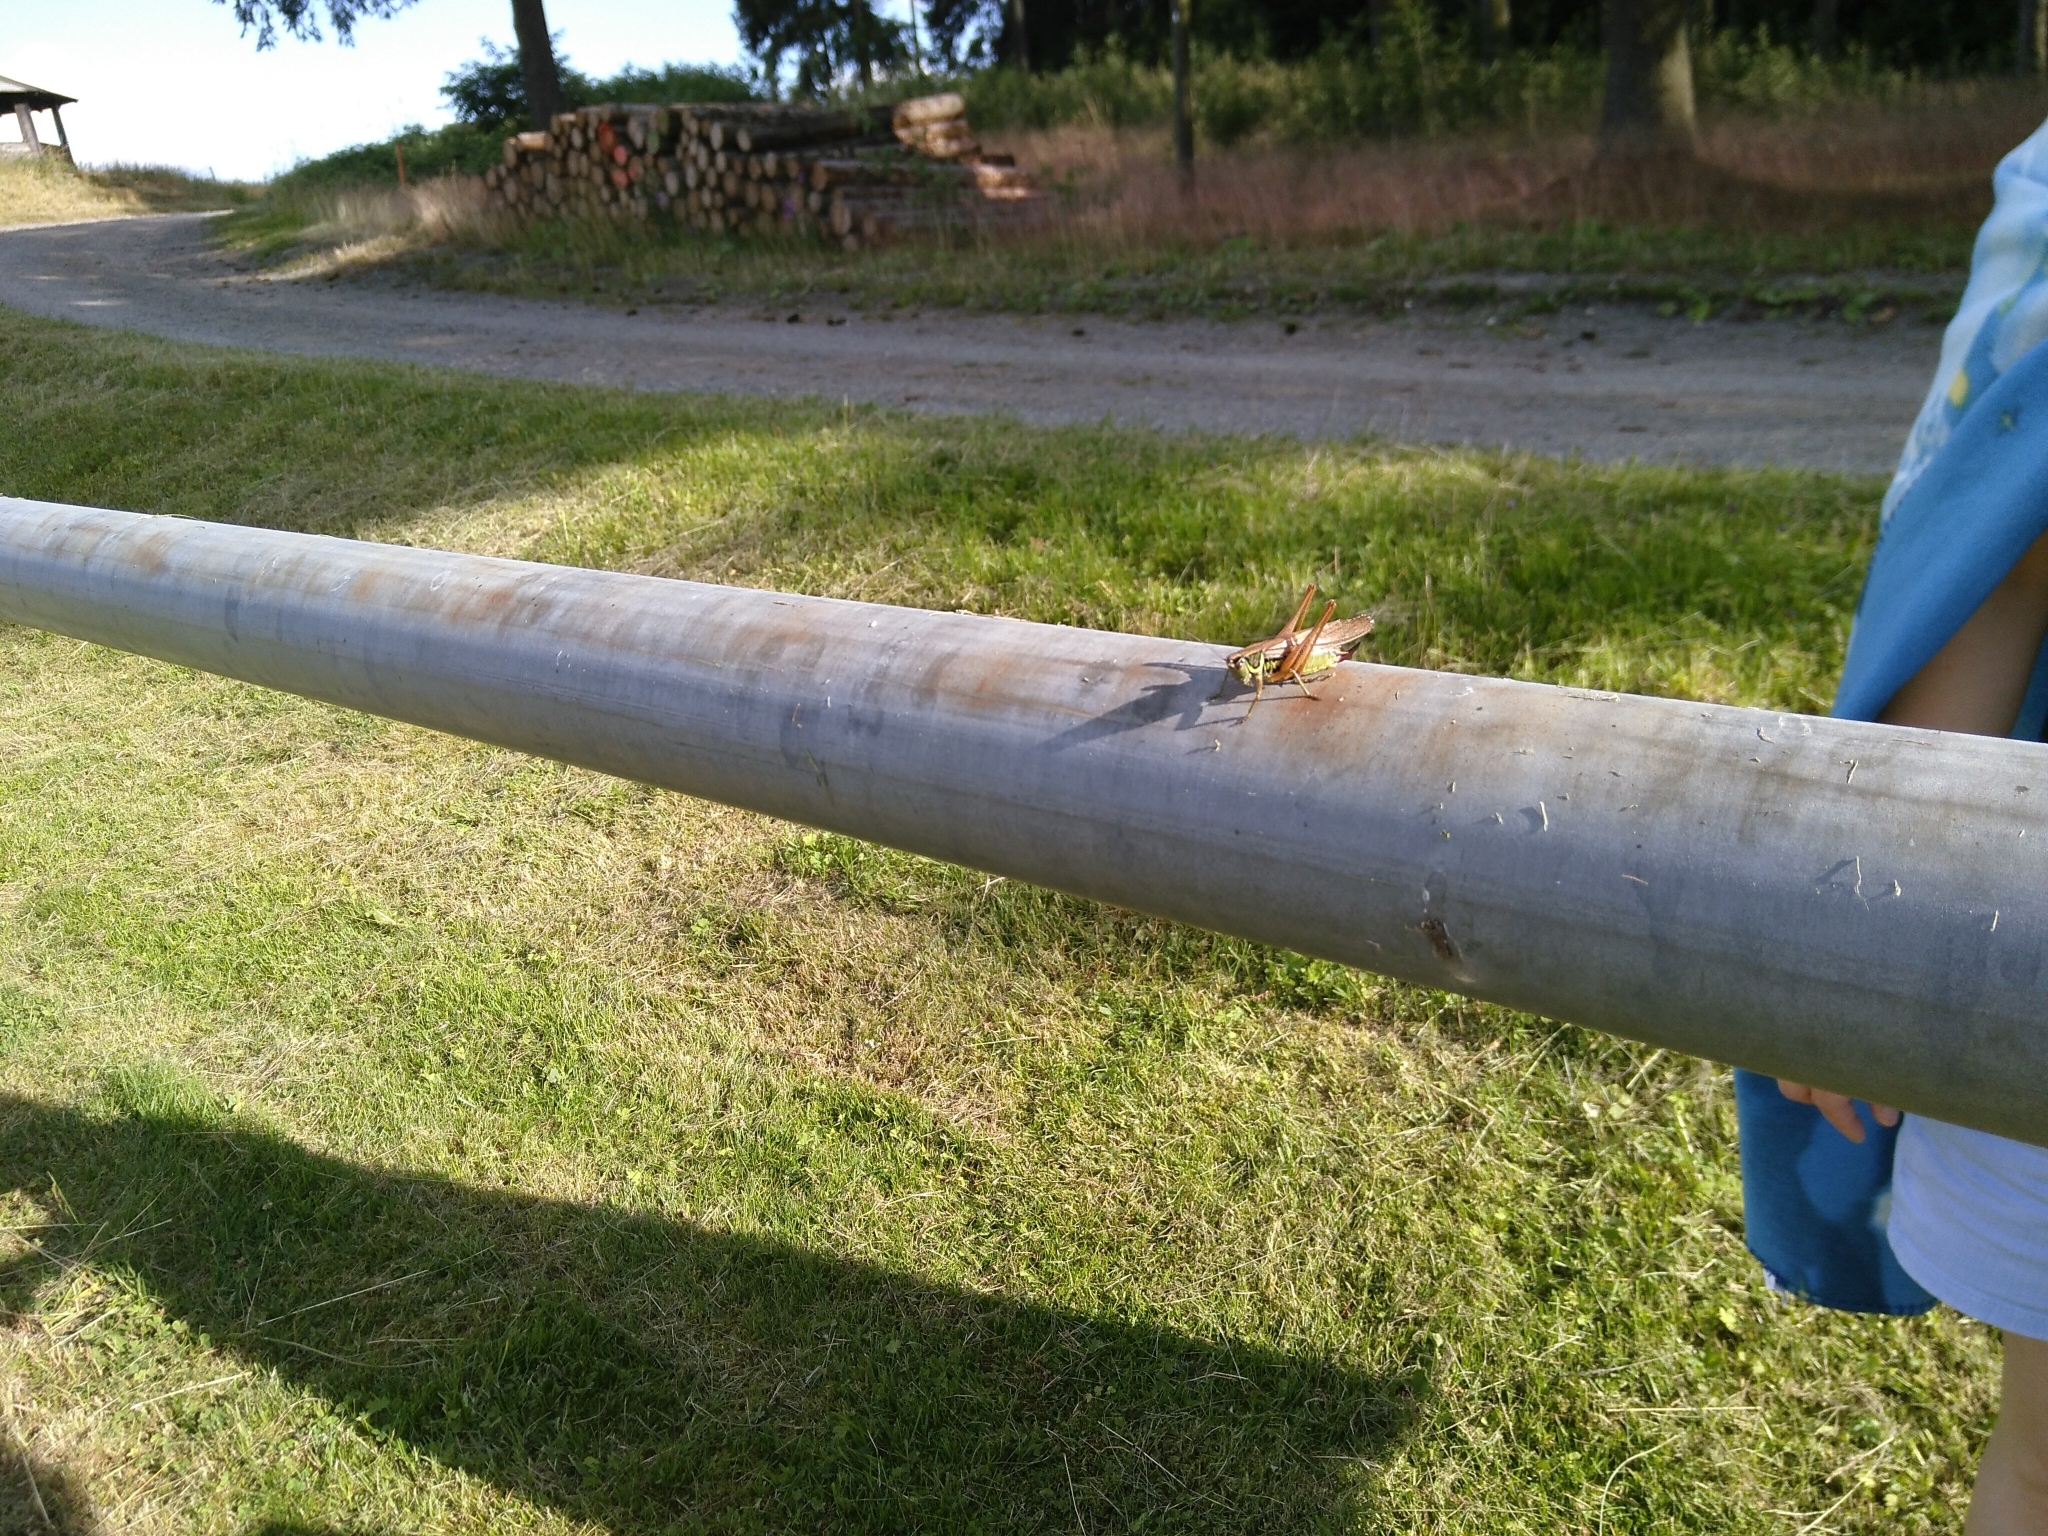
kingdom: Animalia
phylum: Arthropoda
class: Insecta
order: Orthoptera
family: Tettigoniidae
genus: Roeseliana
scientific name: Roeseliana roeselii
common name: Roesel's bush cricket
